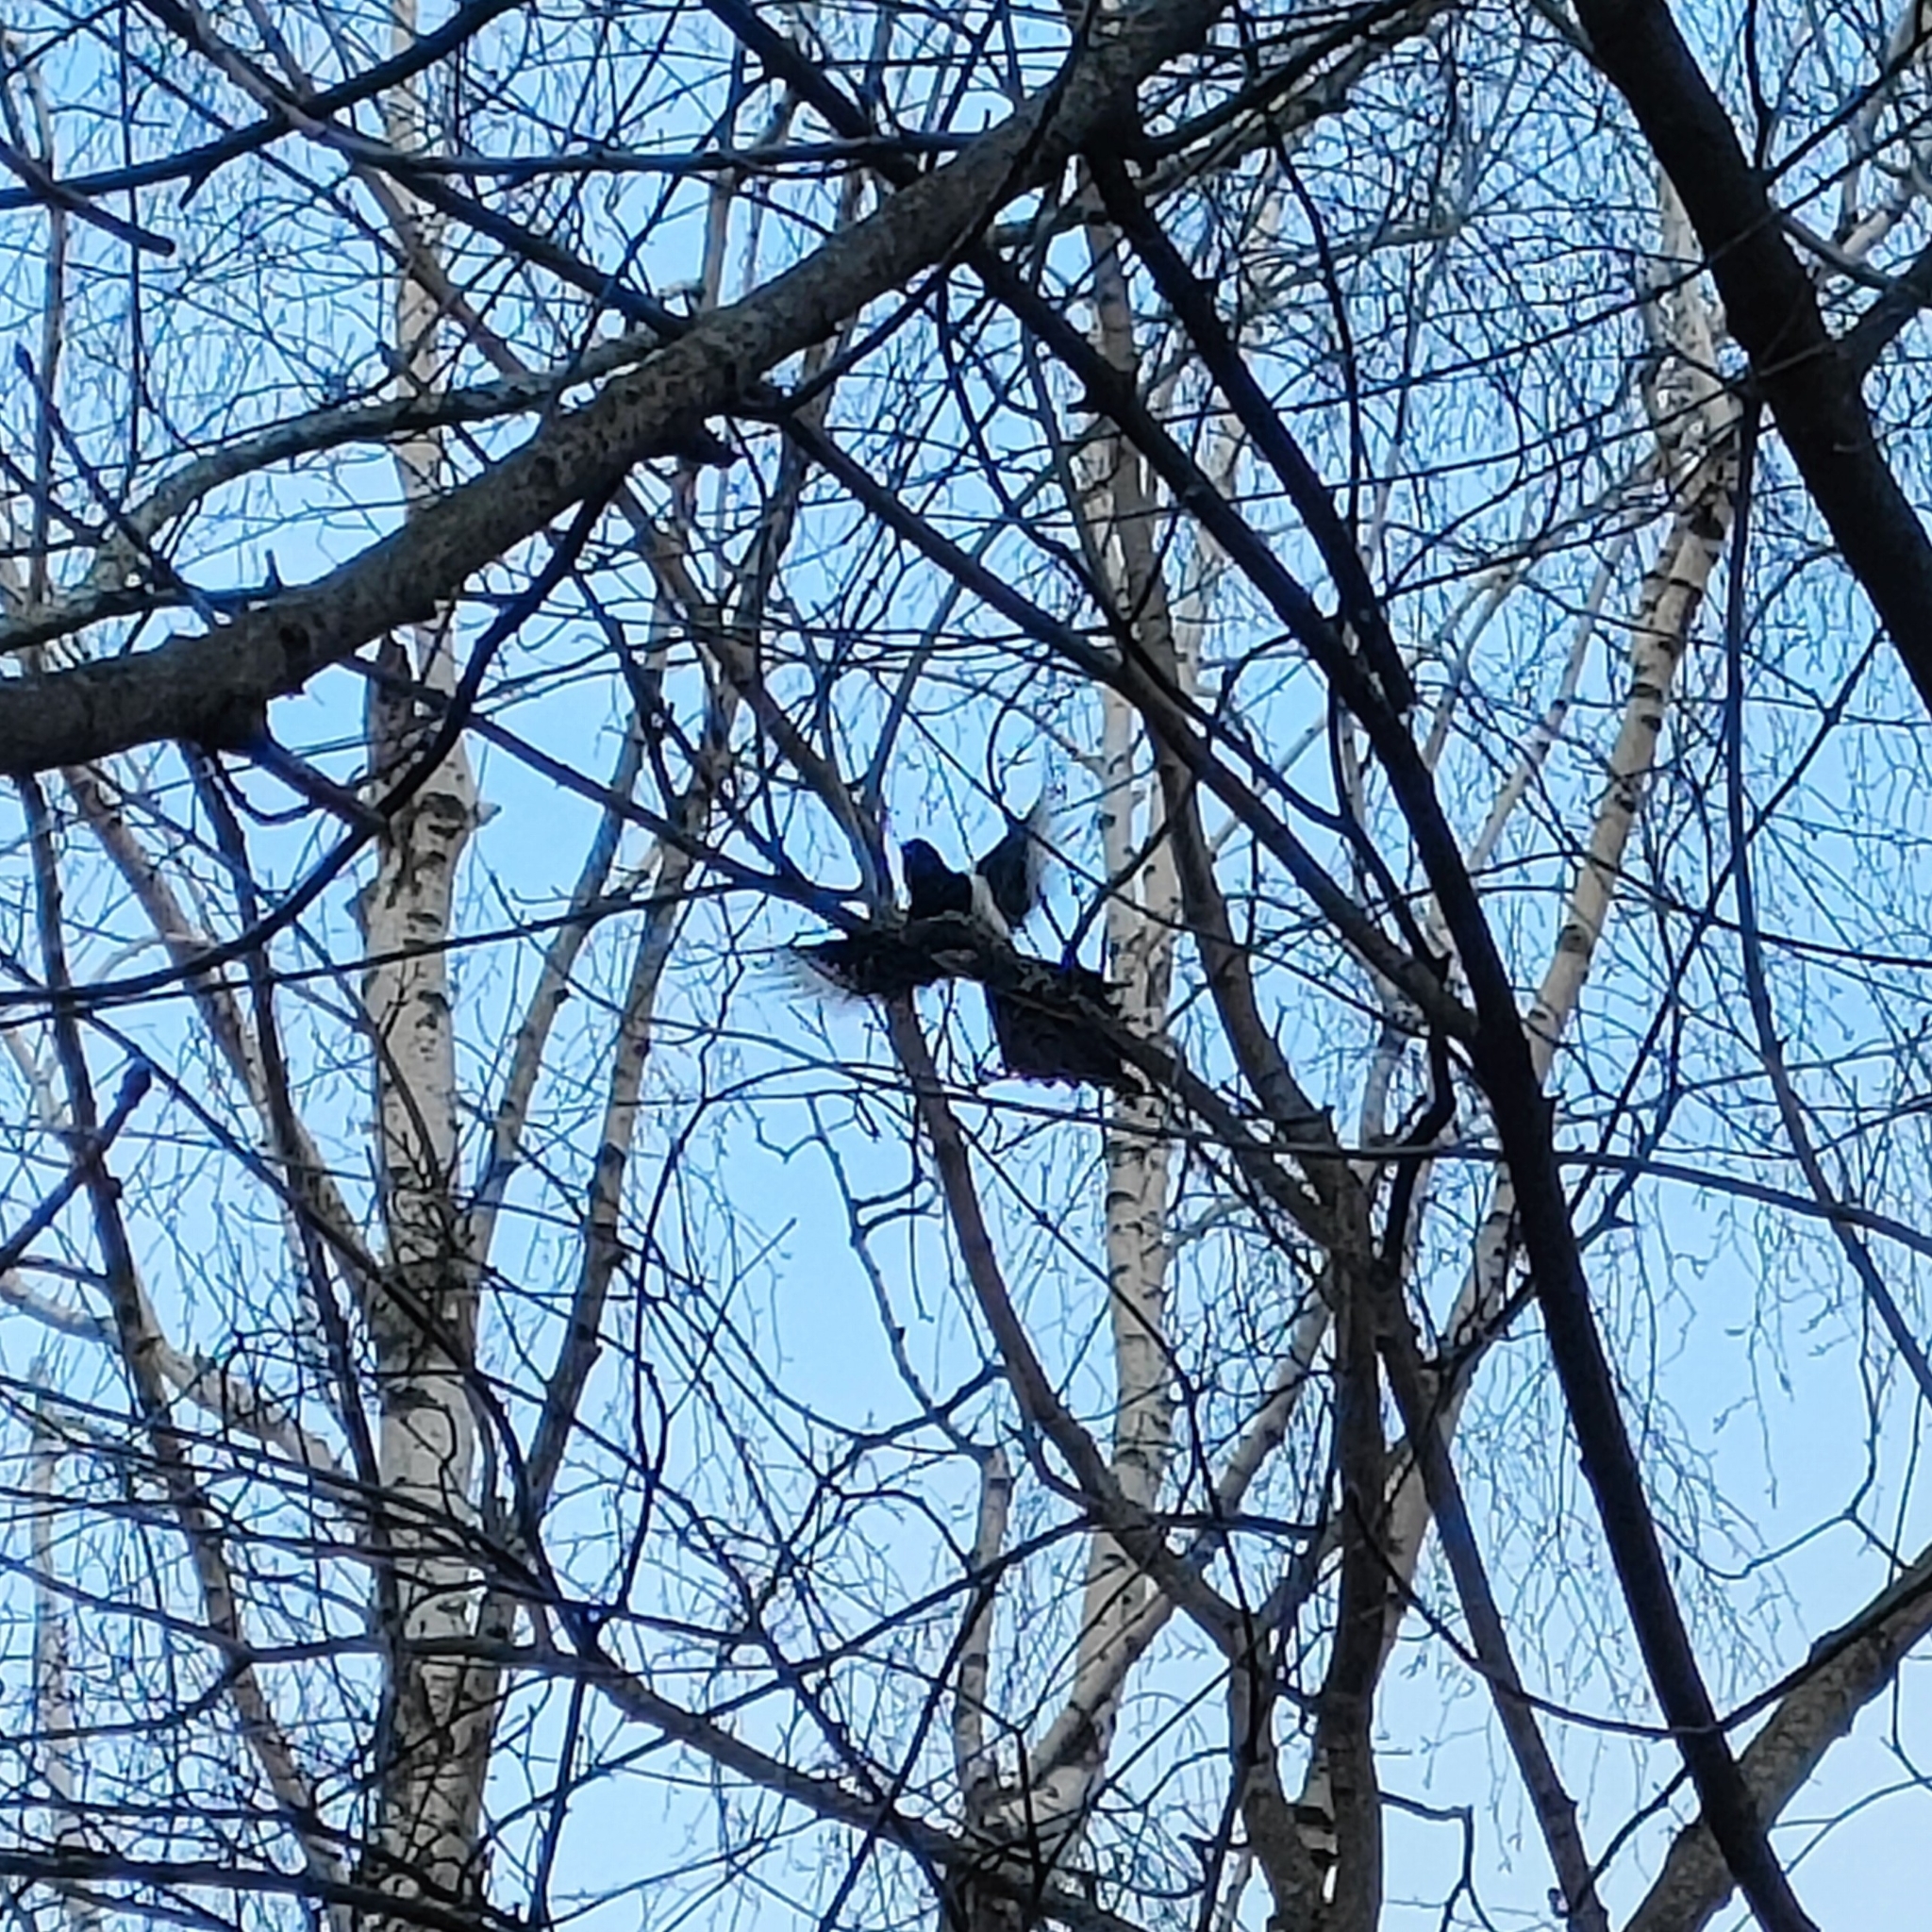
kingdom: Animalia
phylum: Chordata
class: Aves
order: Passeriformes
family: Corvidae
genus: Pica
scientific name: Pica pica
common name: Eurasian magpie
